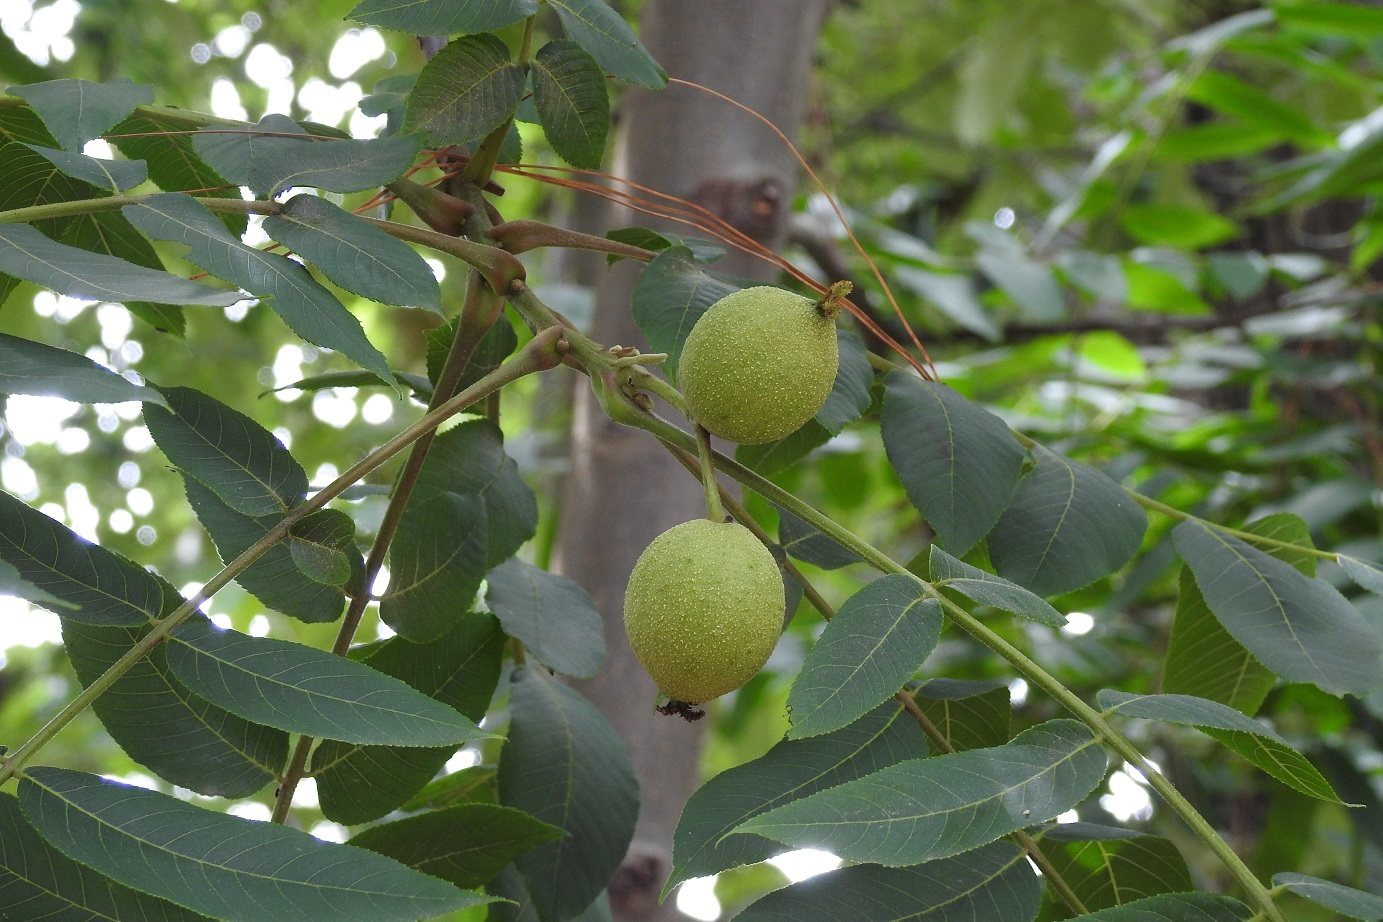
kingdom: Plantae
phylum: Tracheophyta
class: Magnoliopsida
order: Fagales
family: Juglandaceae
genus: Juglans
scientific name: Juglans olanchana
